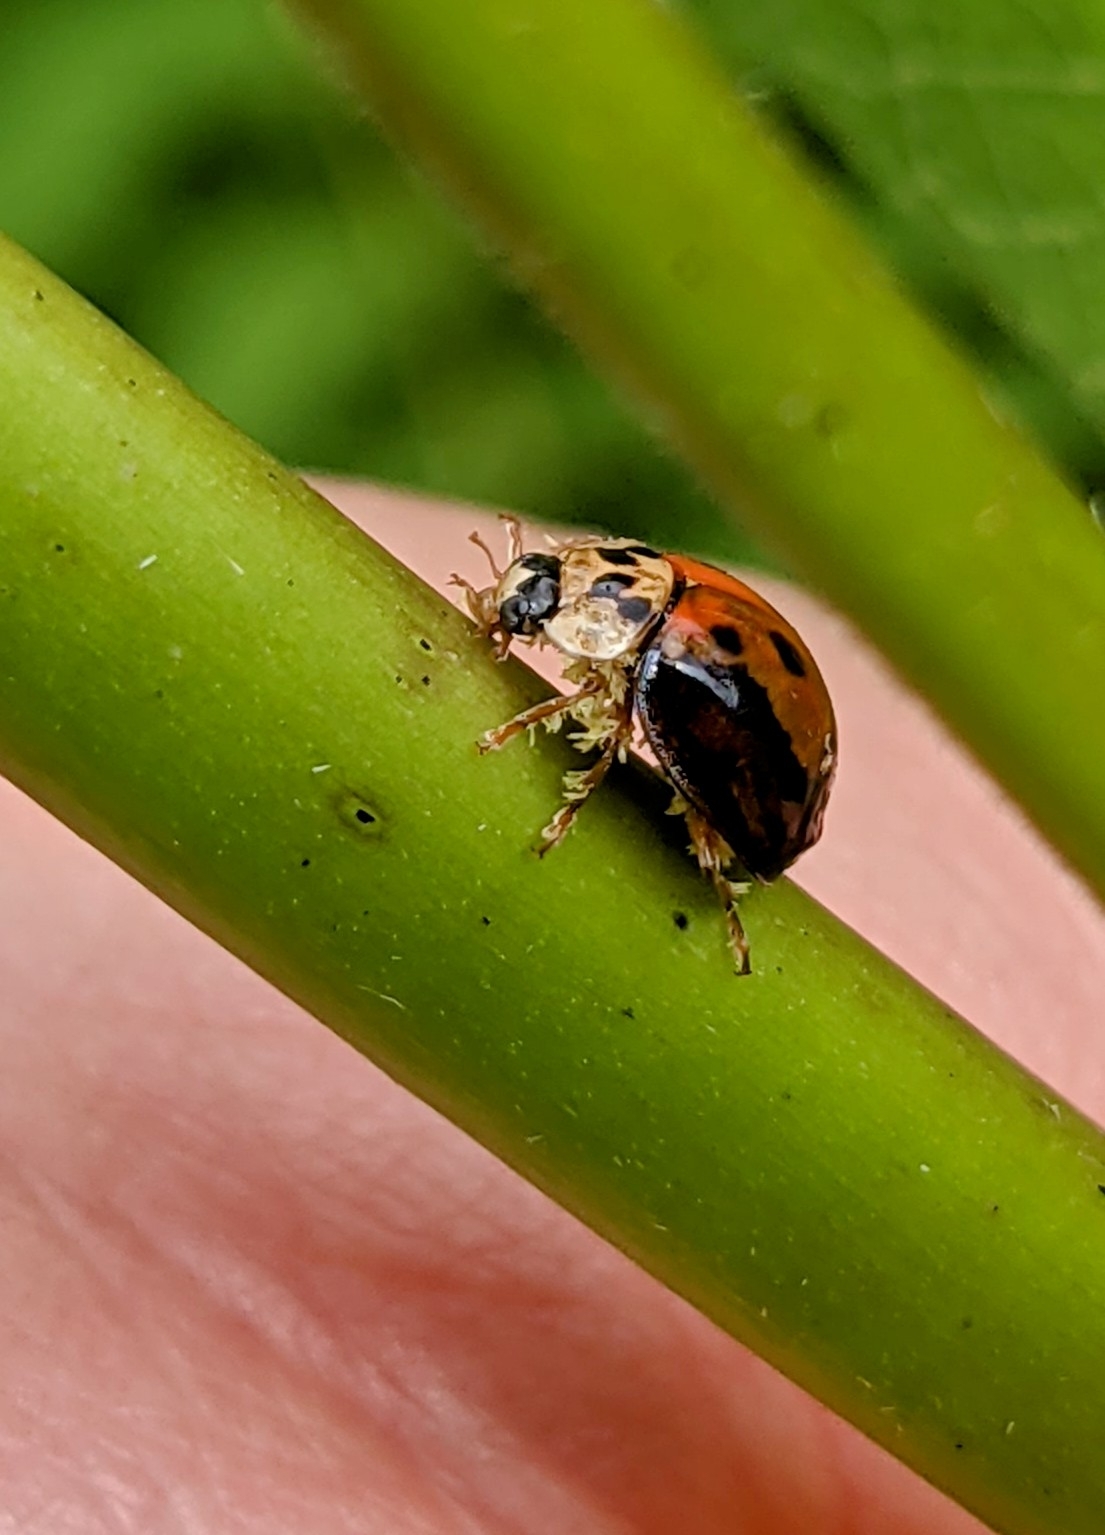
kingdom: Animalia
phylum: Arthropoda
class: Insecta
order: Coleoptera
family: Coccinellidae
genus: Harmonia
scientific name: Harmonia axyridis
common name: Harlequin ladybird
